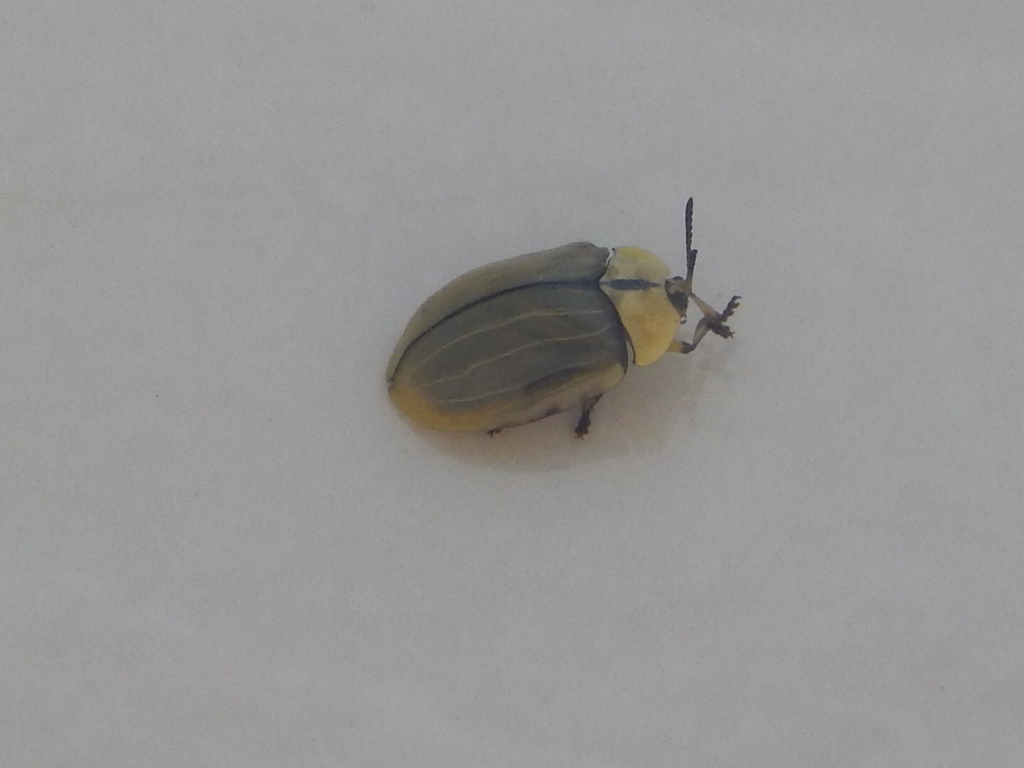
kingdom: Animalia
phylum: Arthropoda
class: Insecta
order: Coleoptera
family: Chrysomelidae
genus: Zatrephina
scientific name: Zatrephina lineata
